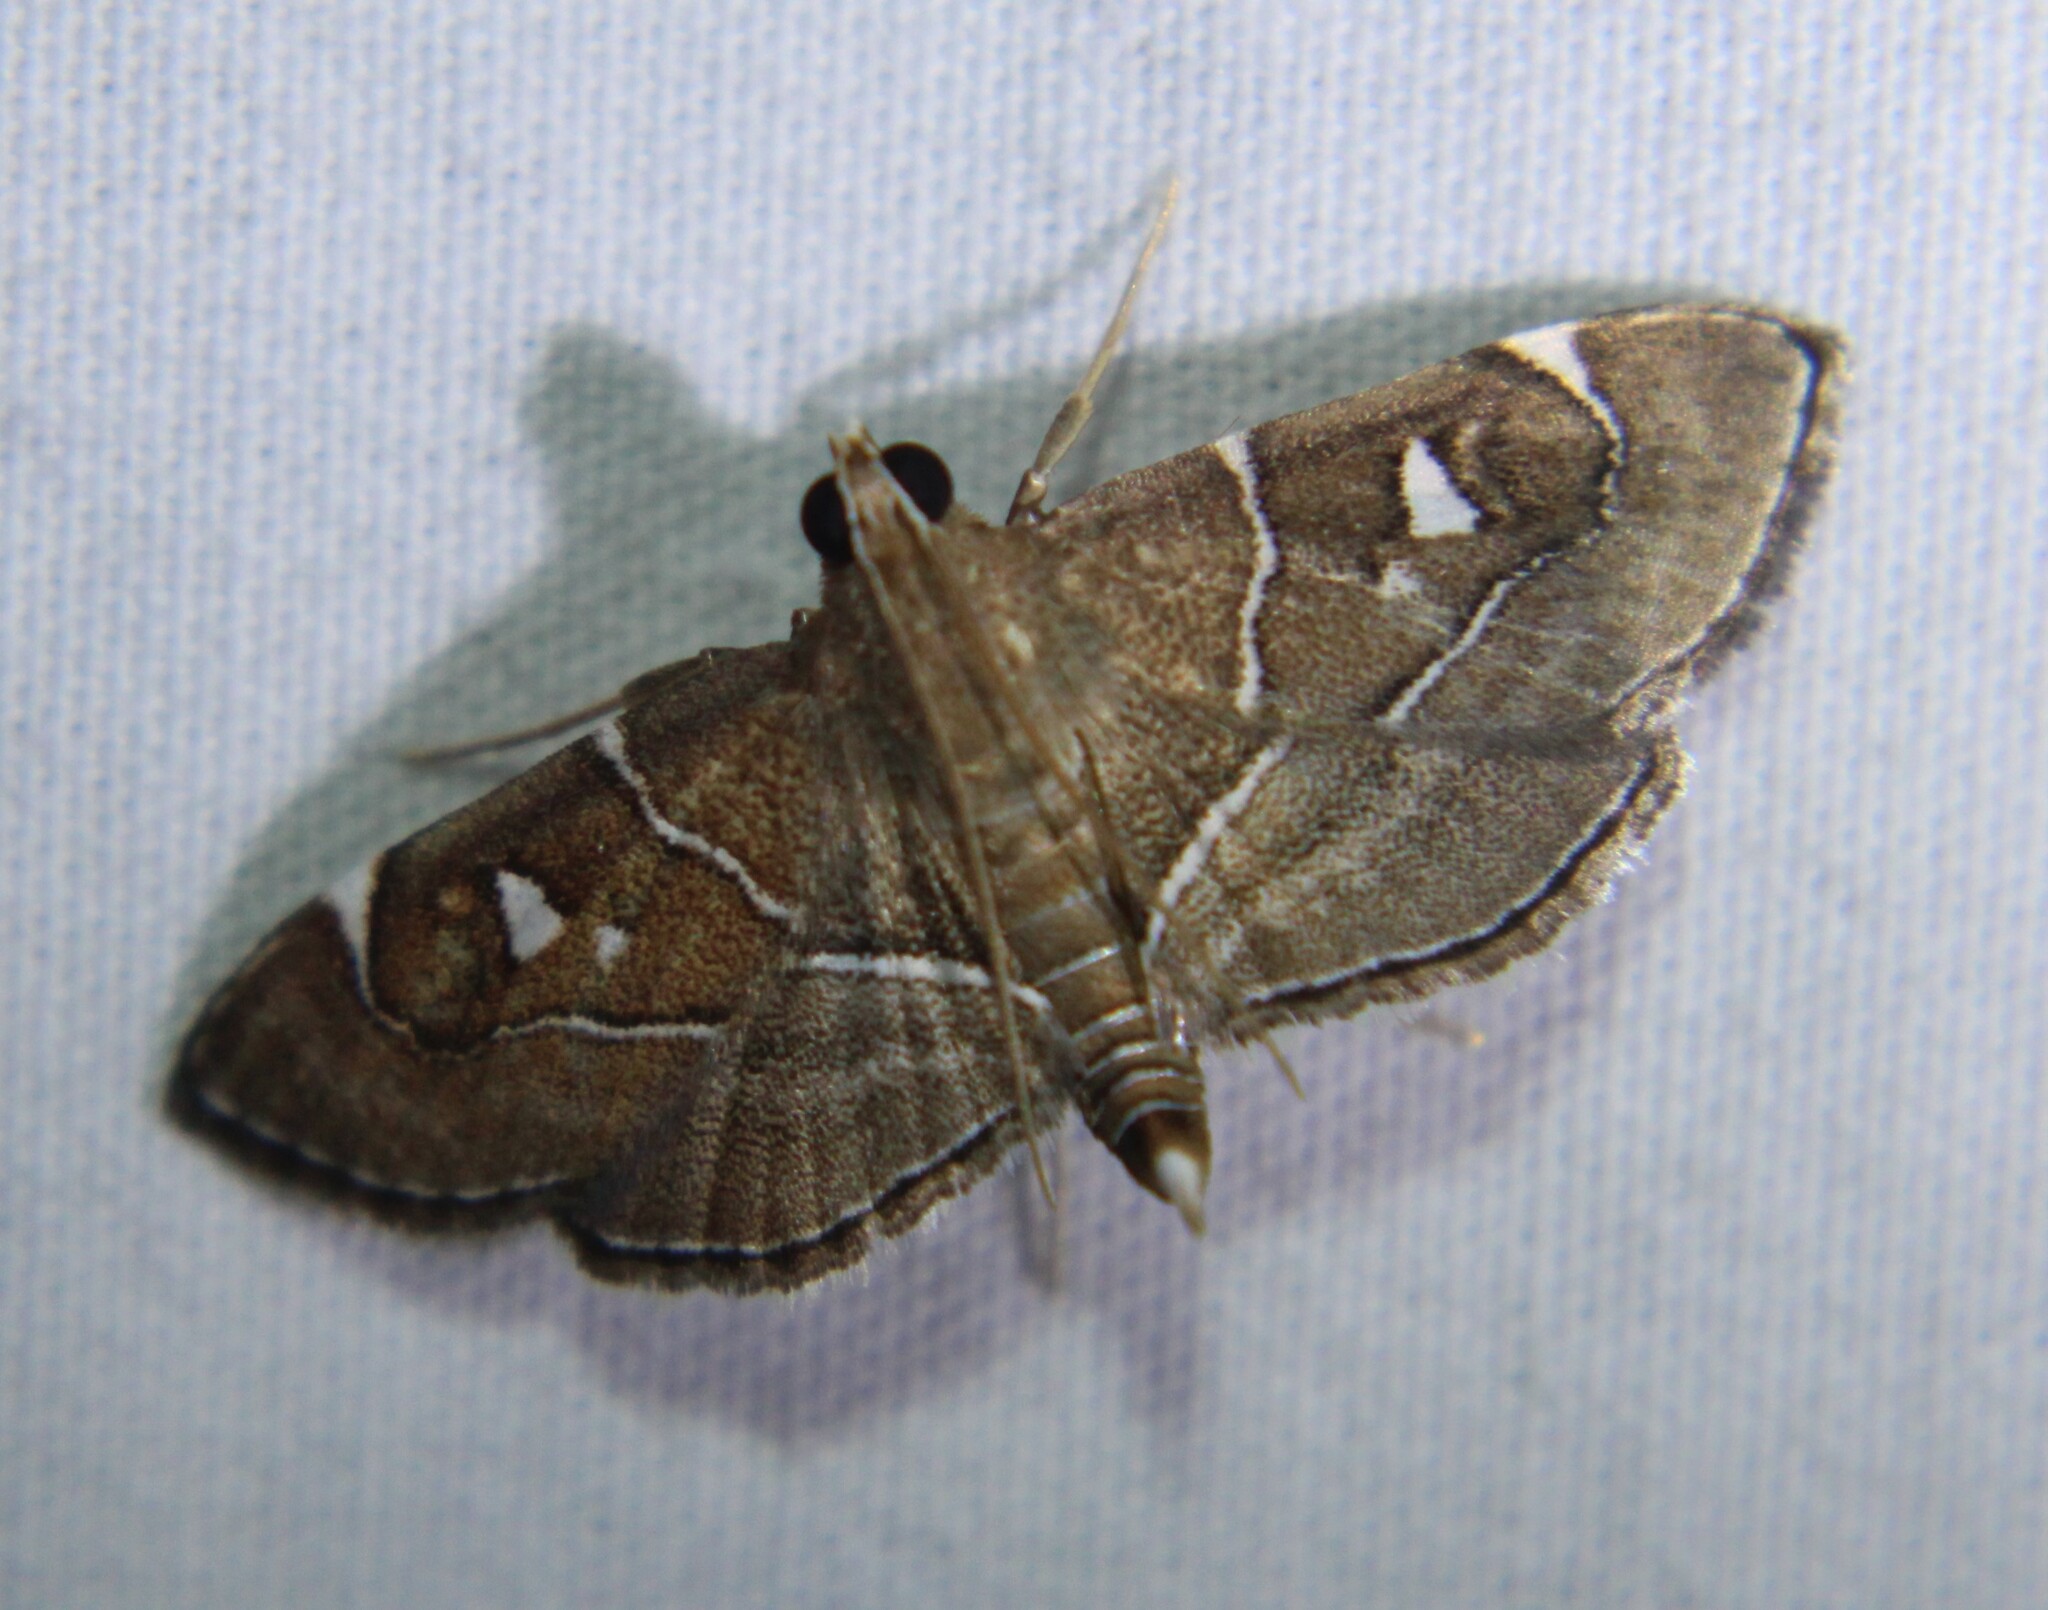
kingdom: Animalia
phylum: Arthropoda
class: Insecta
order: Lepidoptera
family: Crambidae
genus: Lamprosema
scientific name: Lamprosema victoriae
